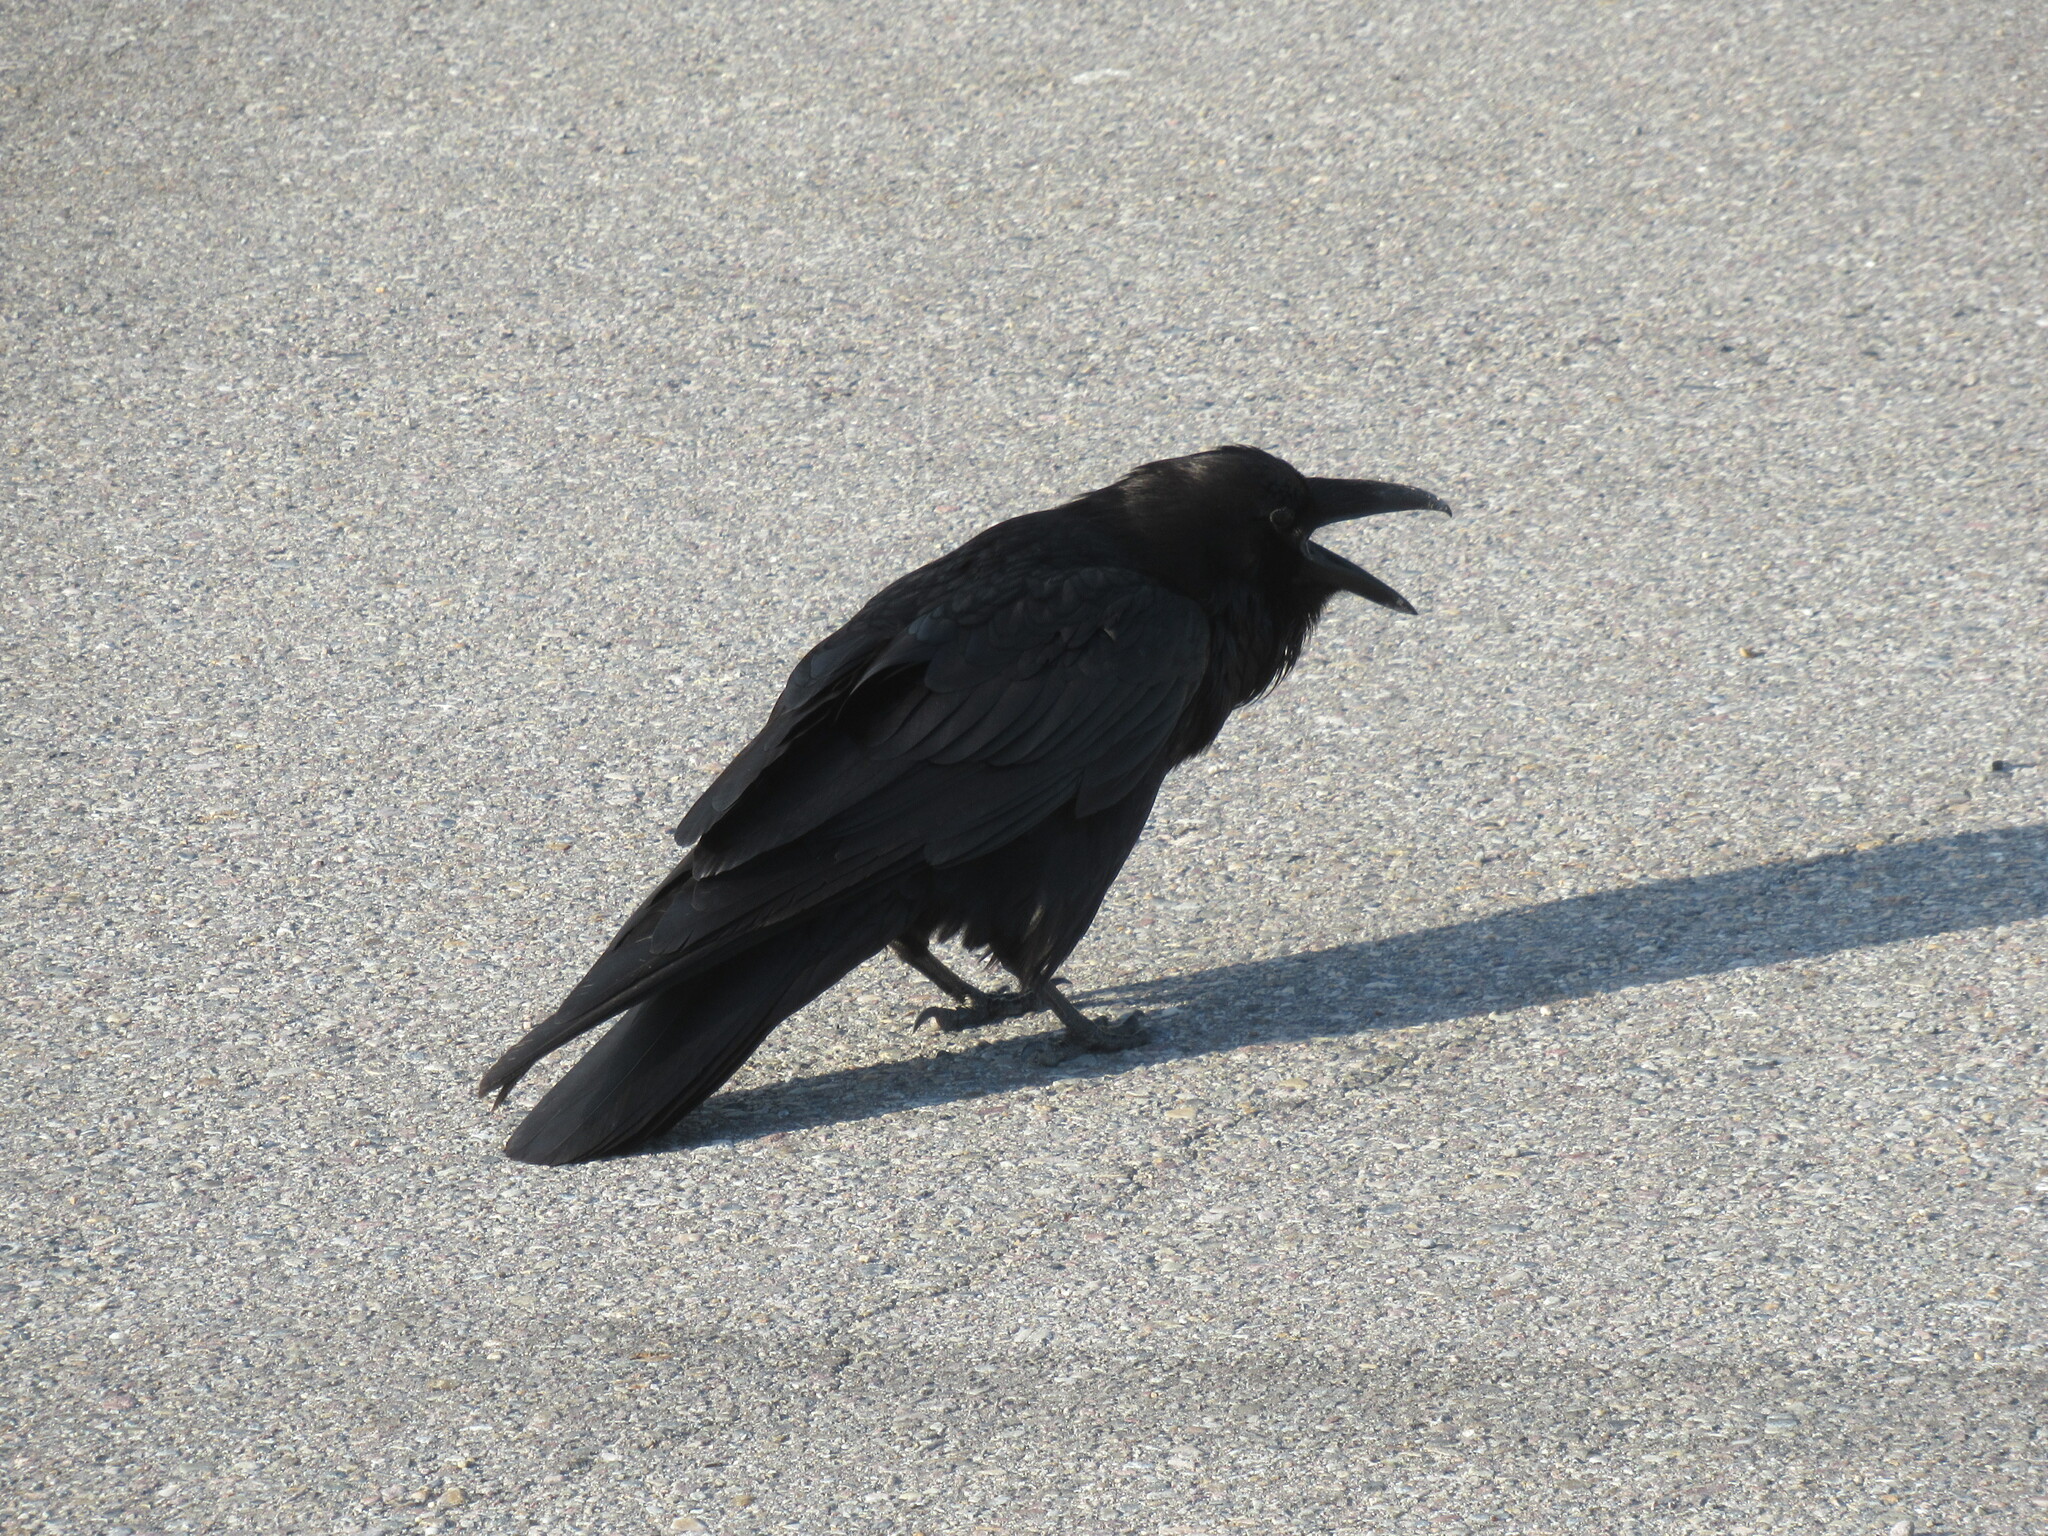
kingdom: Animalia
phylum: Chordata
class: Aves
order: Passeriformes
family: Corvidae
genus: Corvus
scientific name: Corvus corax
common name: Common raven
